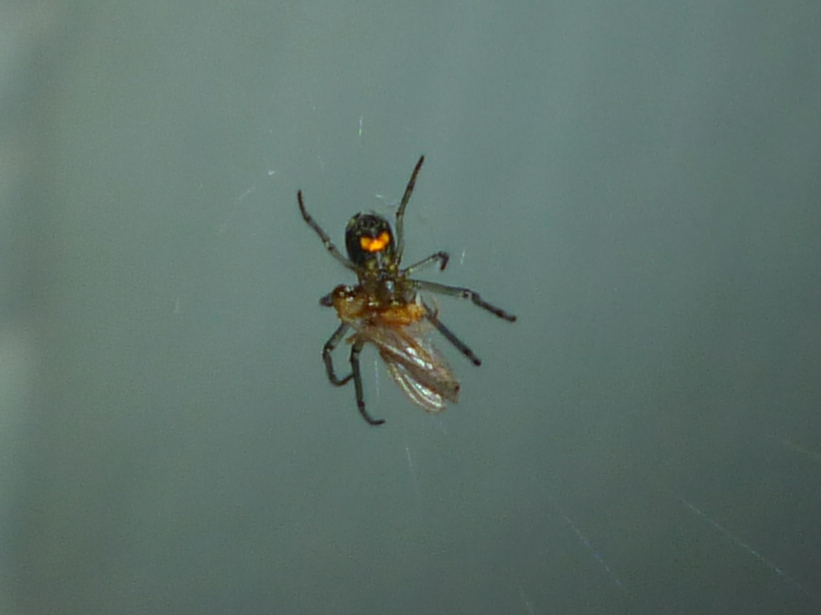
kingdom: Animalia
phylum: Arthropoda
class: Arachnida
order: Araneae
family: Tetragnathidae
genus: Leucauge
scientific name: Leucauge venusta
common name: Longjawed orb weavers
